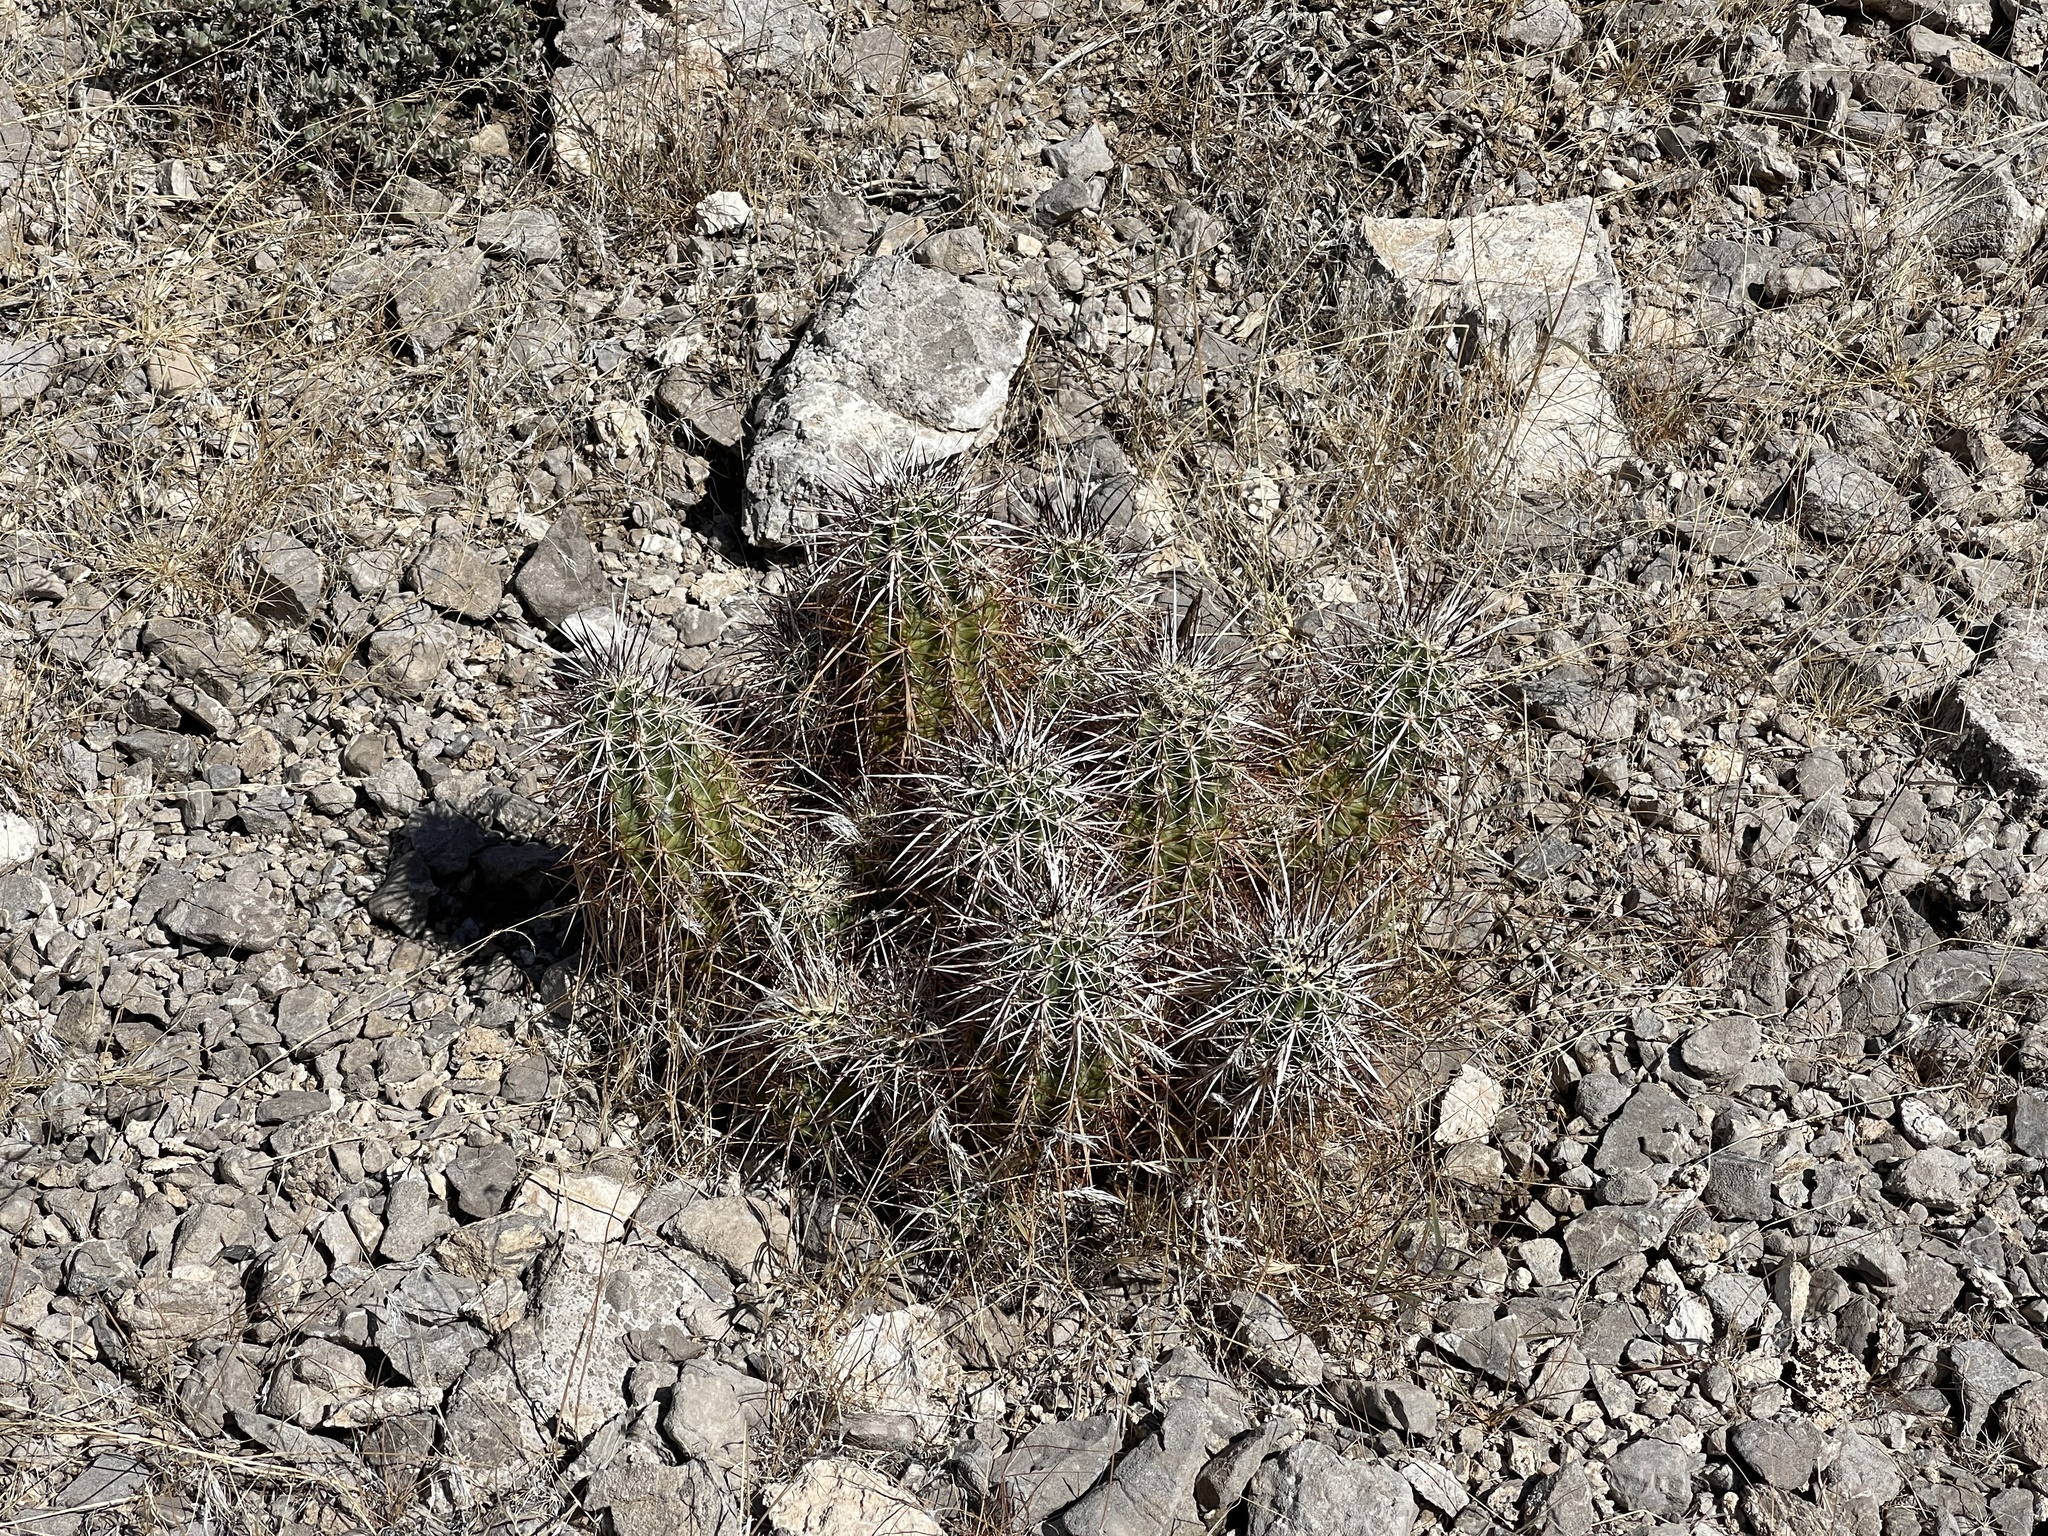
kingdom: Plantae
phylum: Tracheophyta
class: Magnoliopsida
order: Caryophyllales
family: Cactaceae
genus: Echinocereus
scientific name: Echinocereus engelmannii
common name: Engelmann's hedgehog cactus
